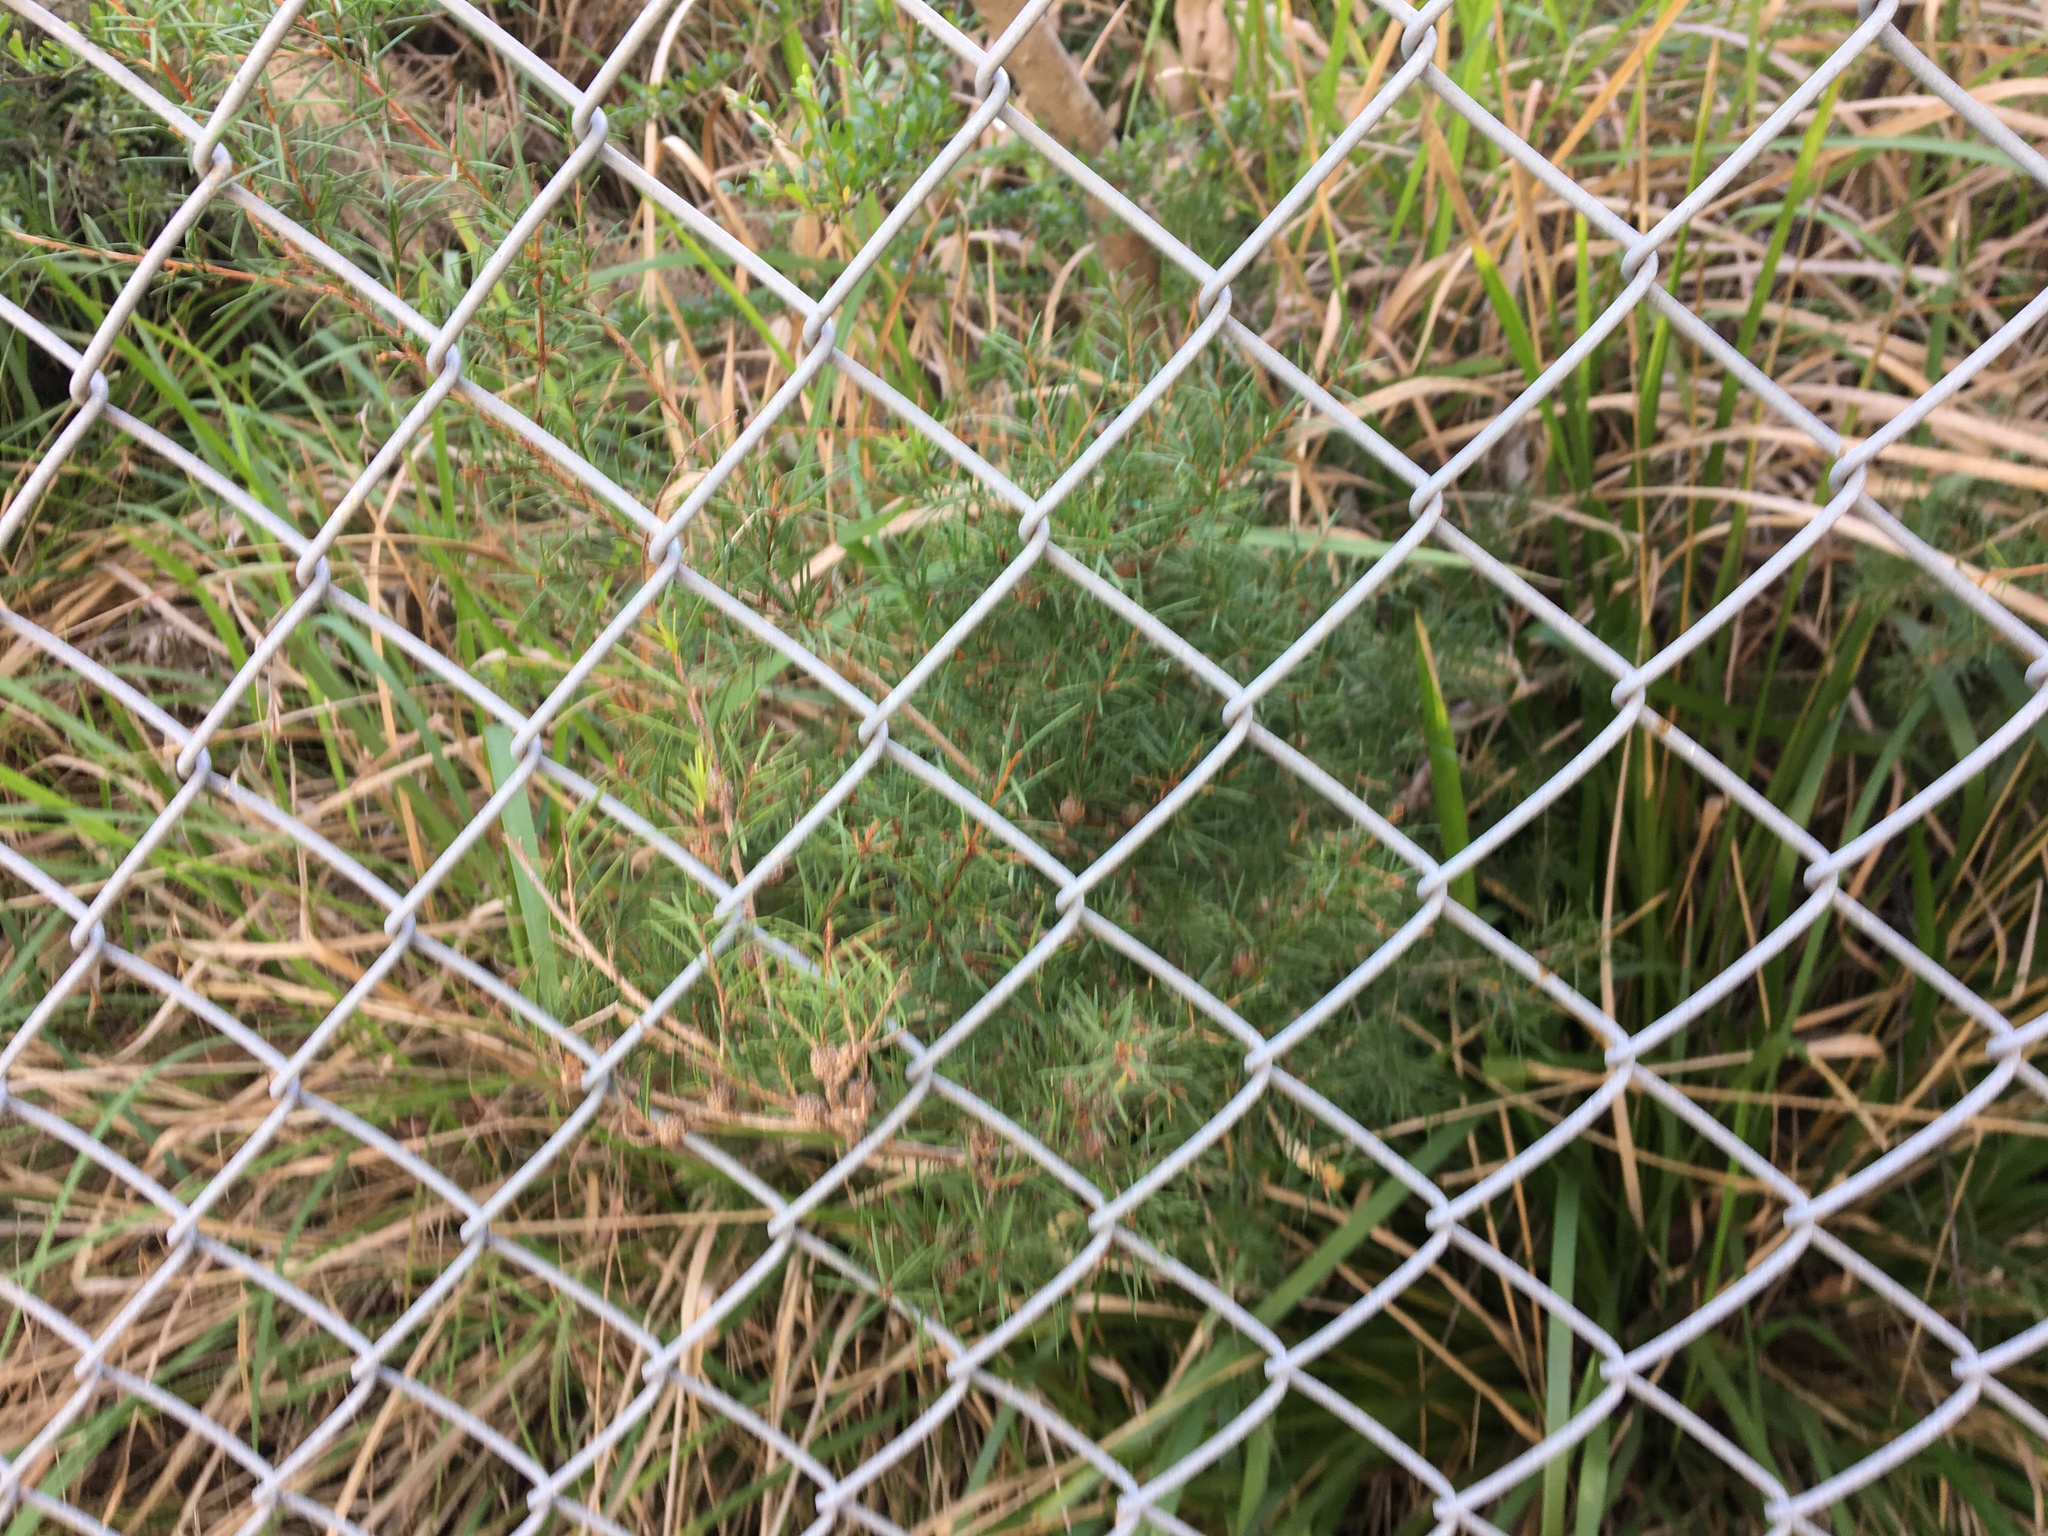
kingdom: Plantae
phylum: Tracheophyta
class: Magnoliopsida
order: Myrtales
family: Myrtaceae
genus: Melaleuca
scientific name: Melaleuca nodosa
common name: Prickly-leaf paperbark
